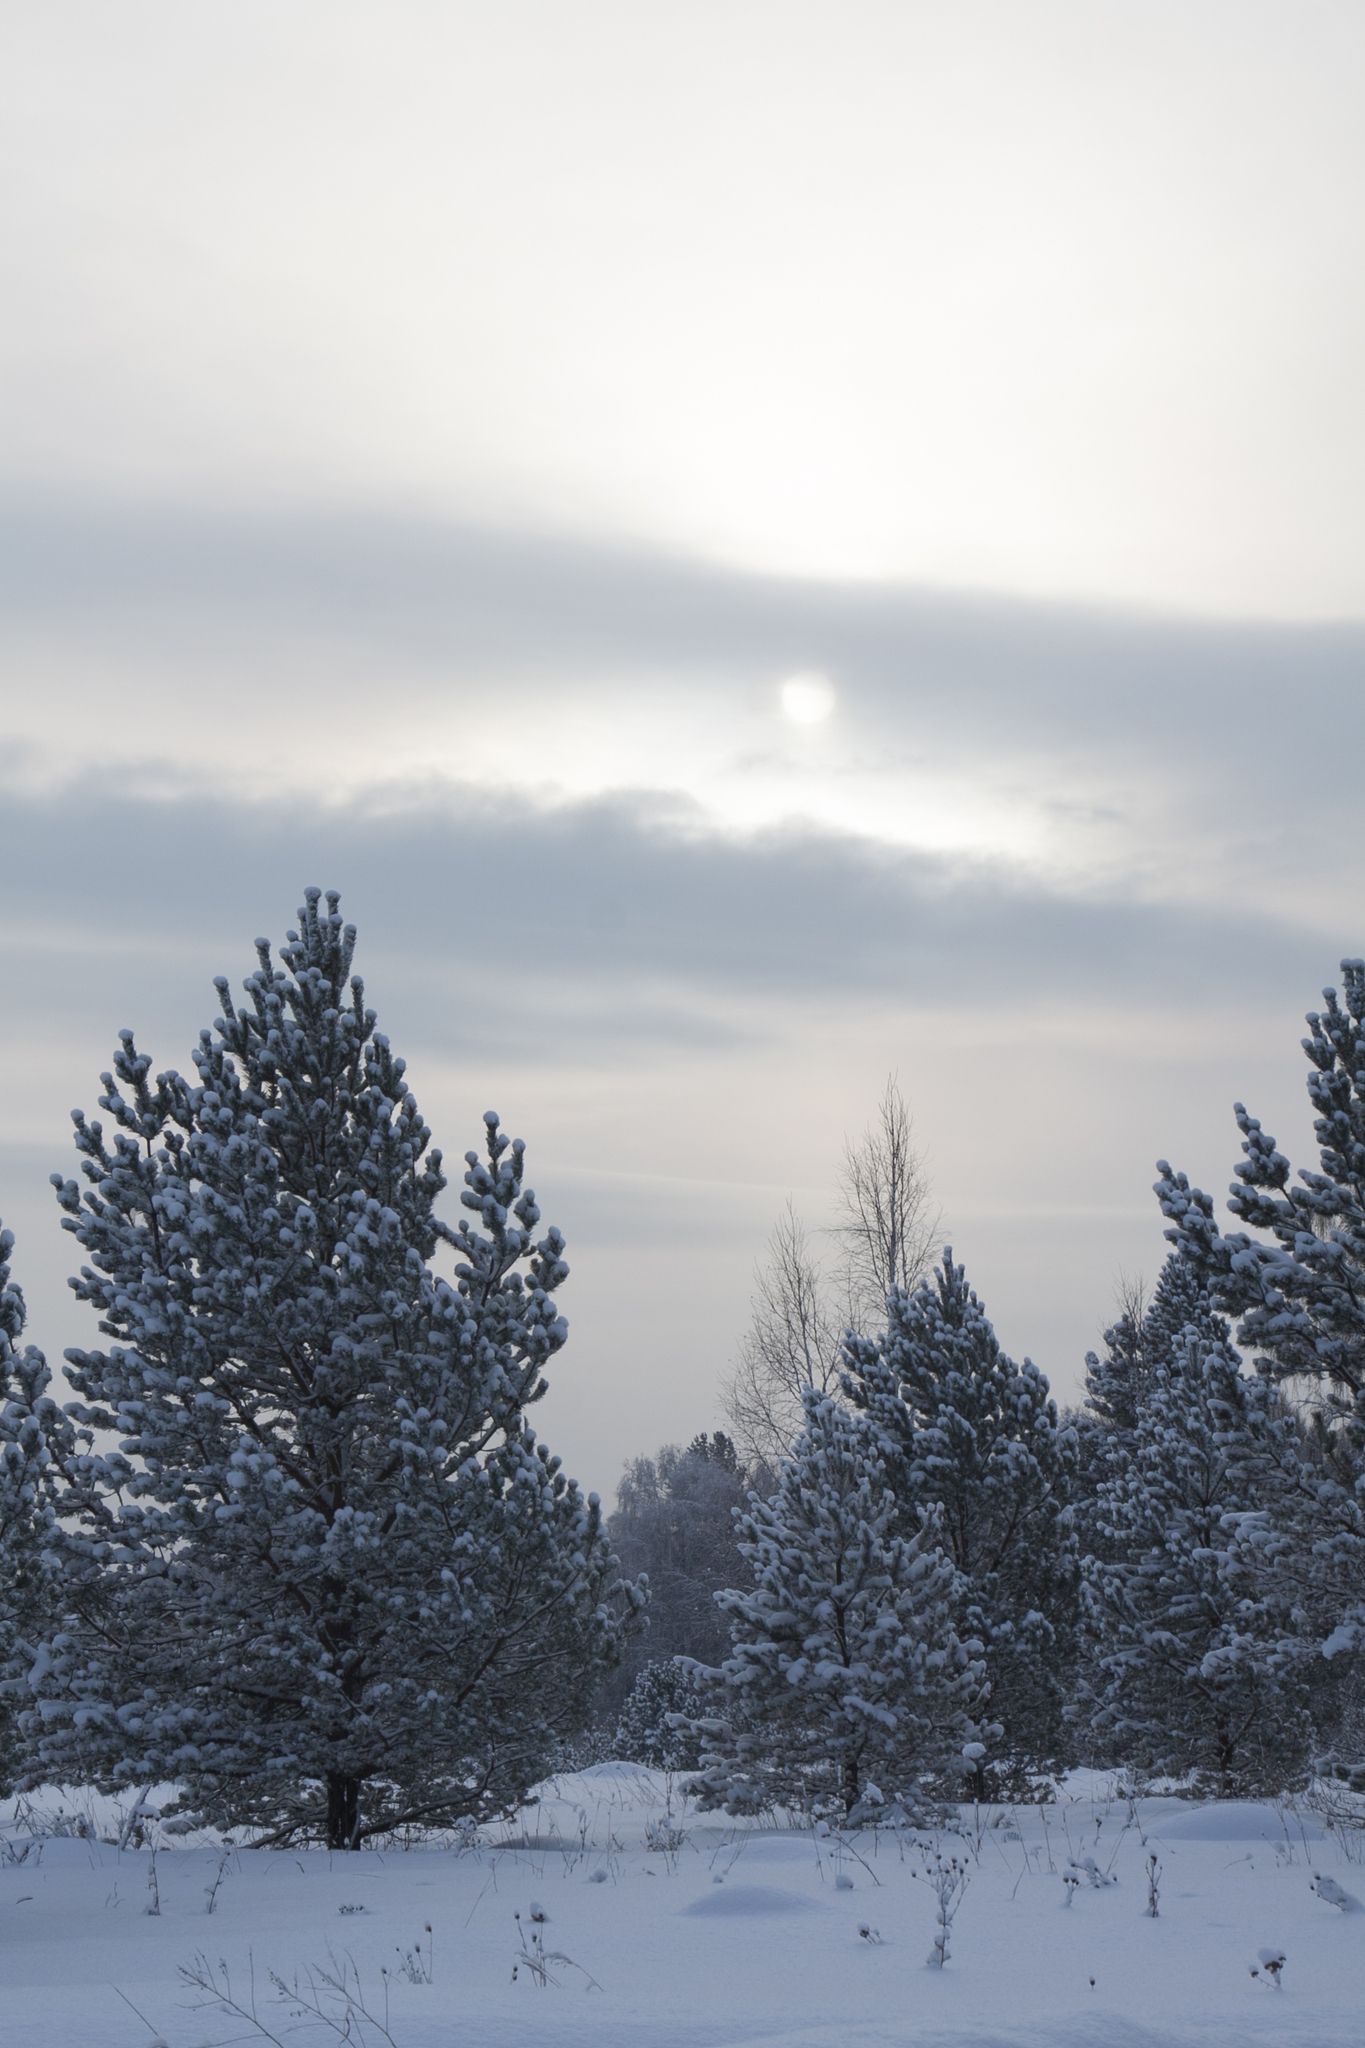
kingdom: Plantae
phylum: Tracheophyta
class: Pinopsida
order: Pinales
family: Pinaceae
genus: Pinus
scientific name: Pinus sylvestris
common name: Scots pine
